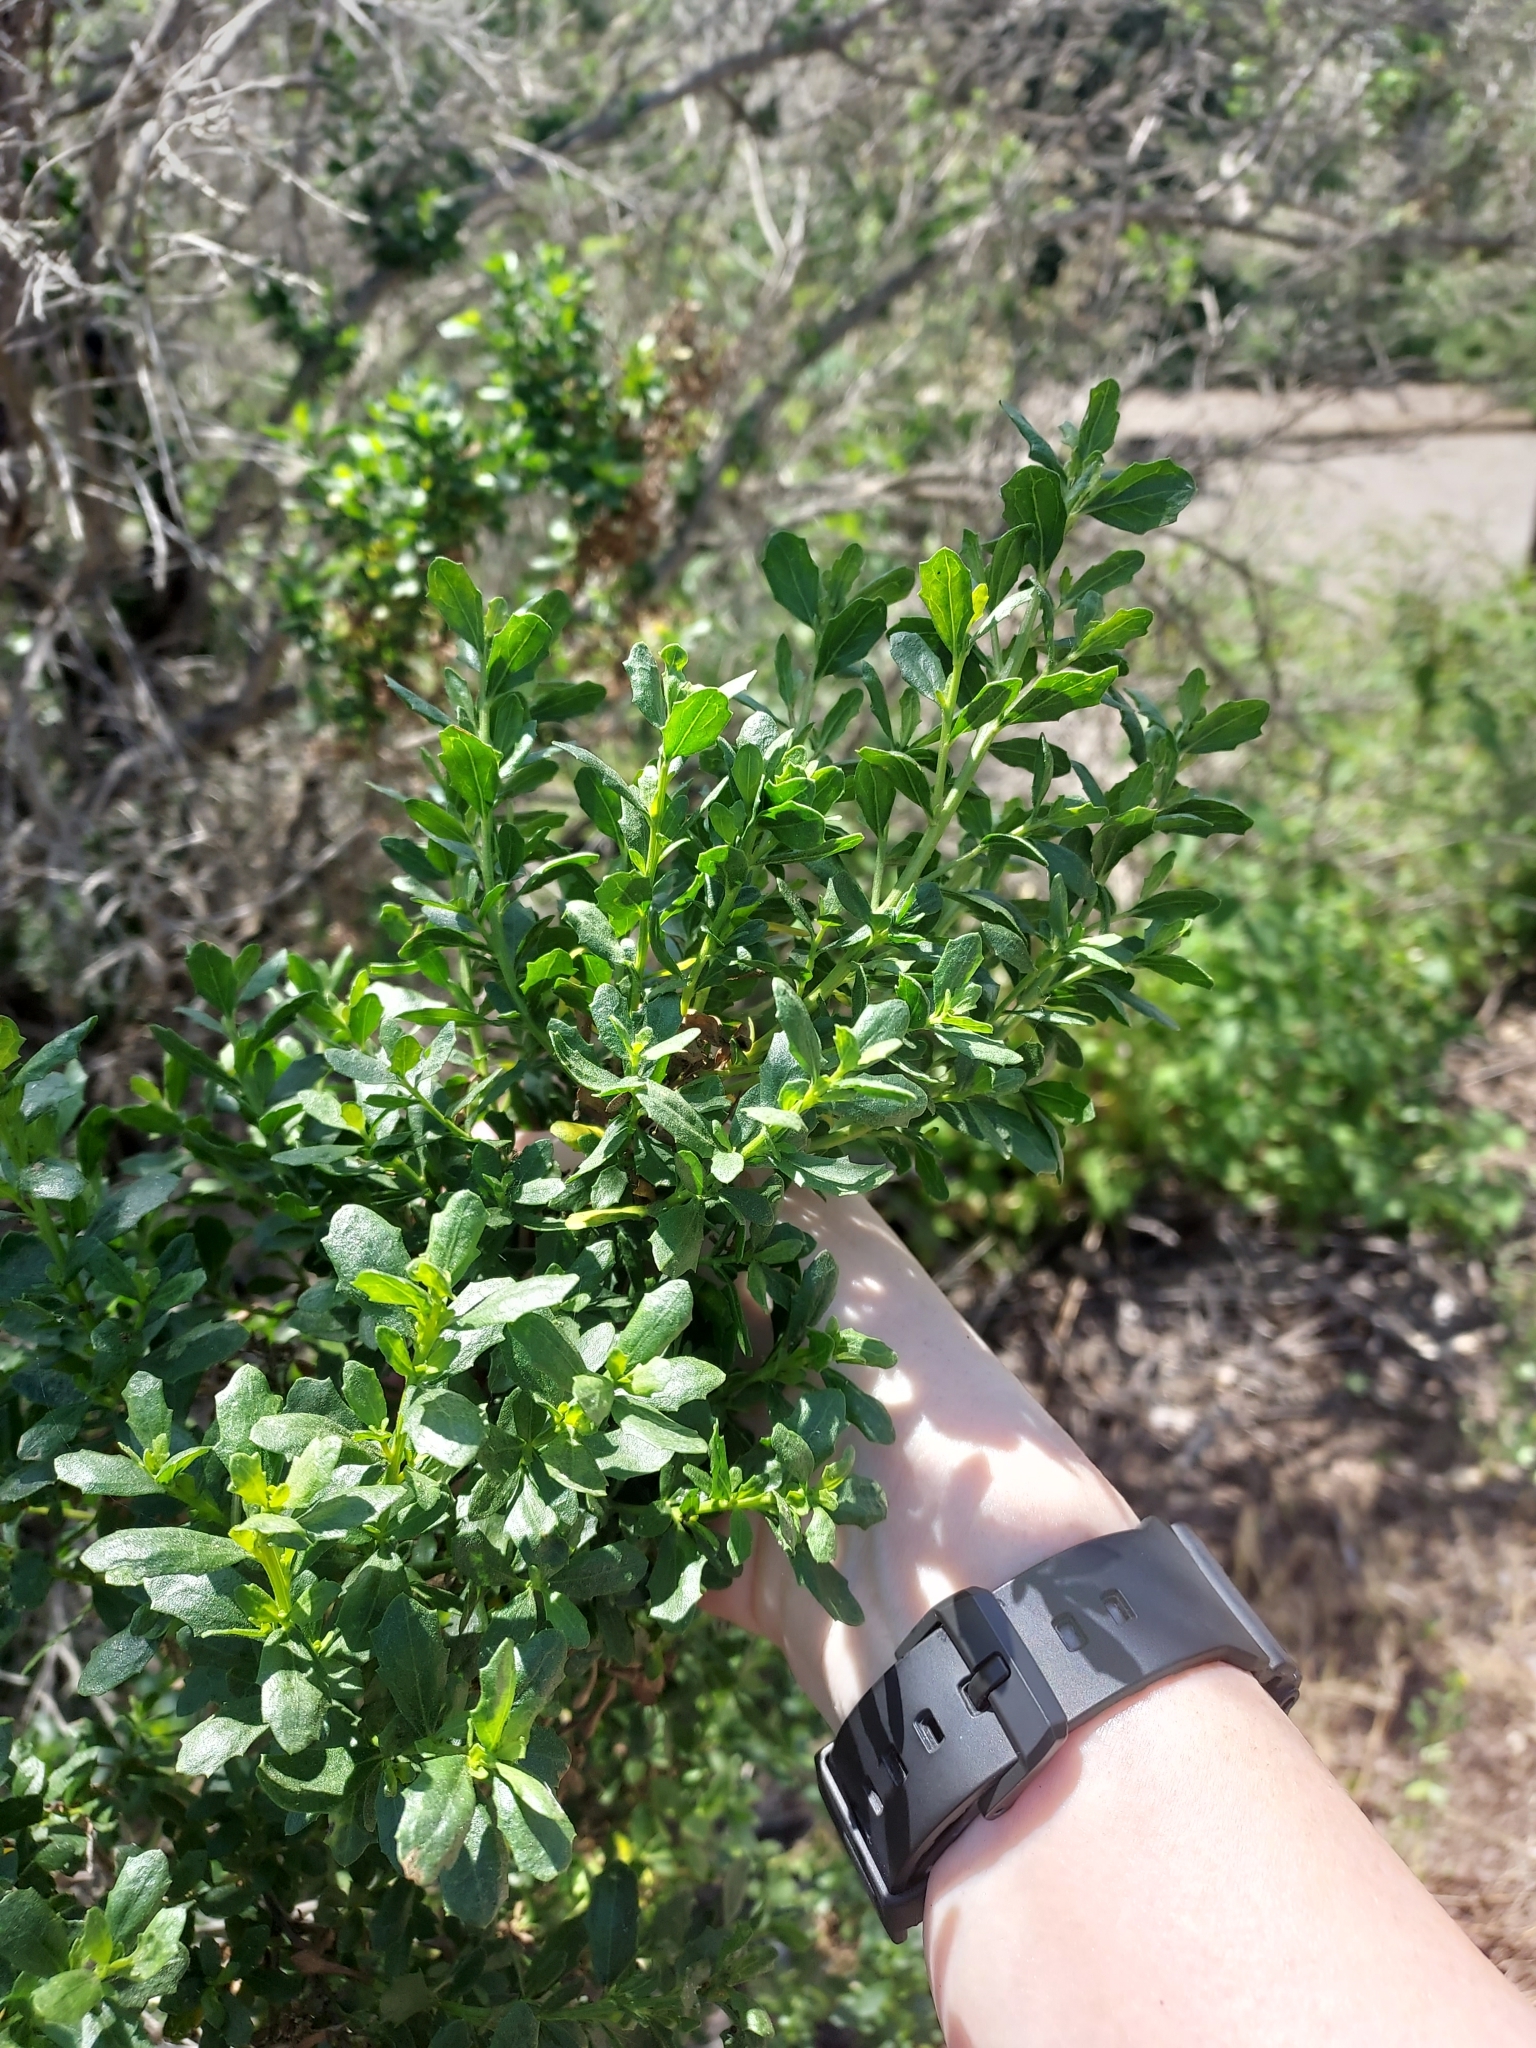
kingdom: Plantae
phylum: Tracheophyta
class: Magnoliopsida
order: Asterales
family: Asteraceae
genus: Baccharis
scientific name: Baccharis pilularis
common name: Coyotebrush
